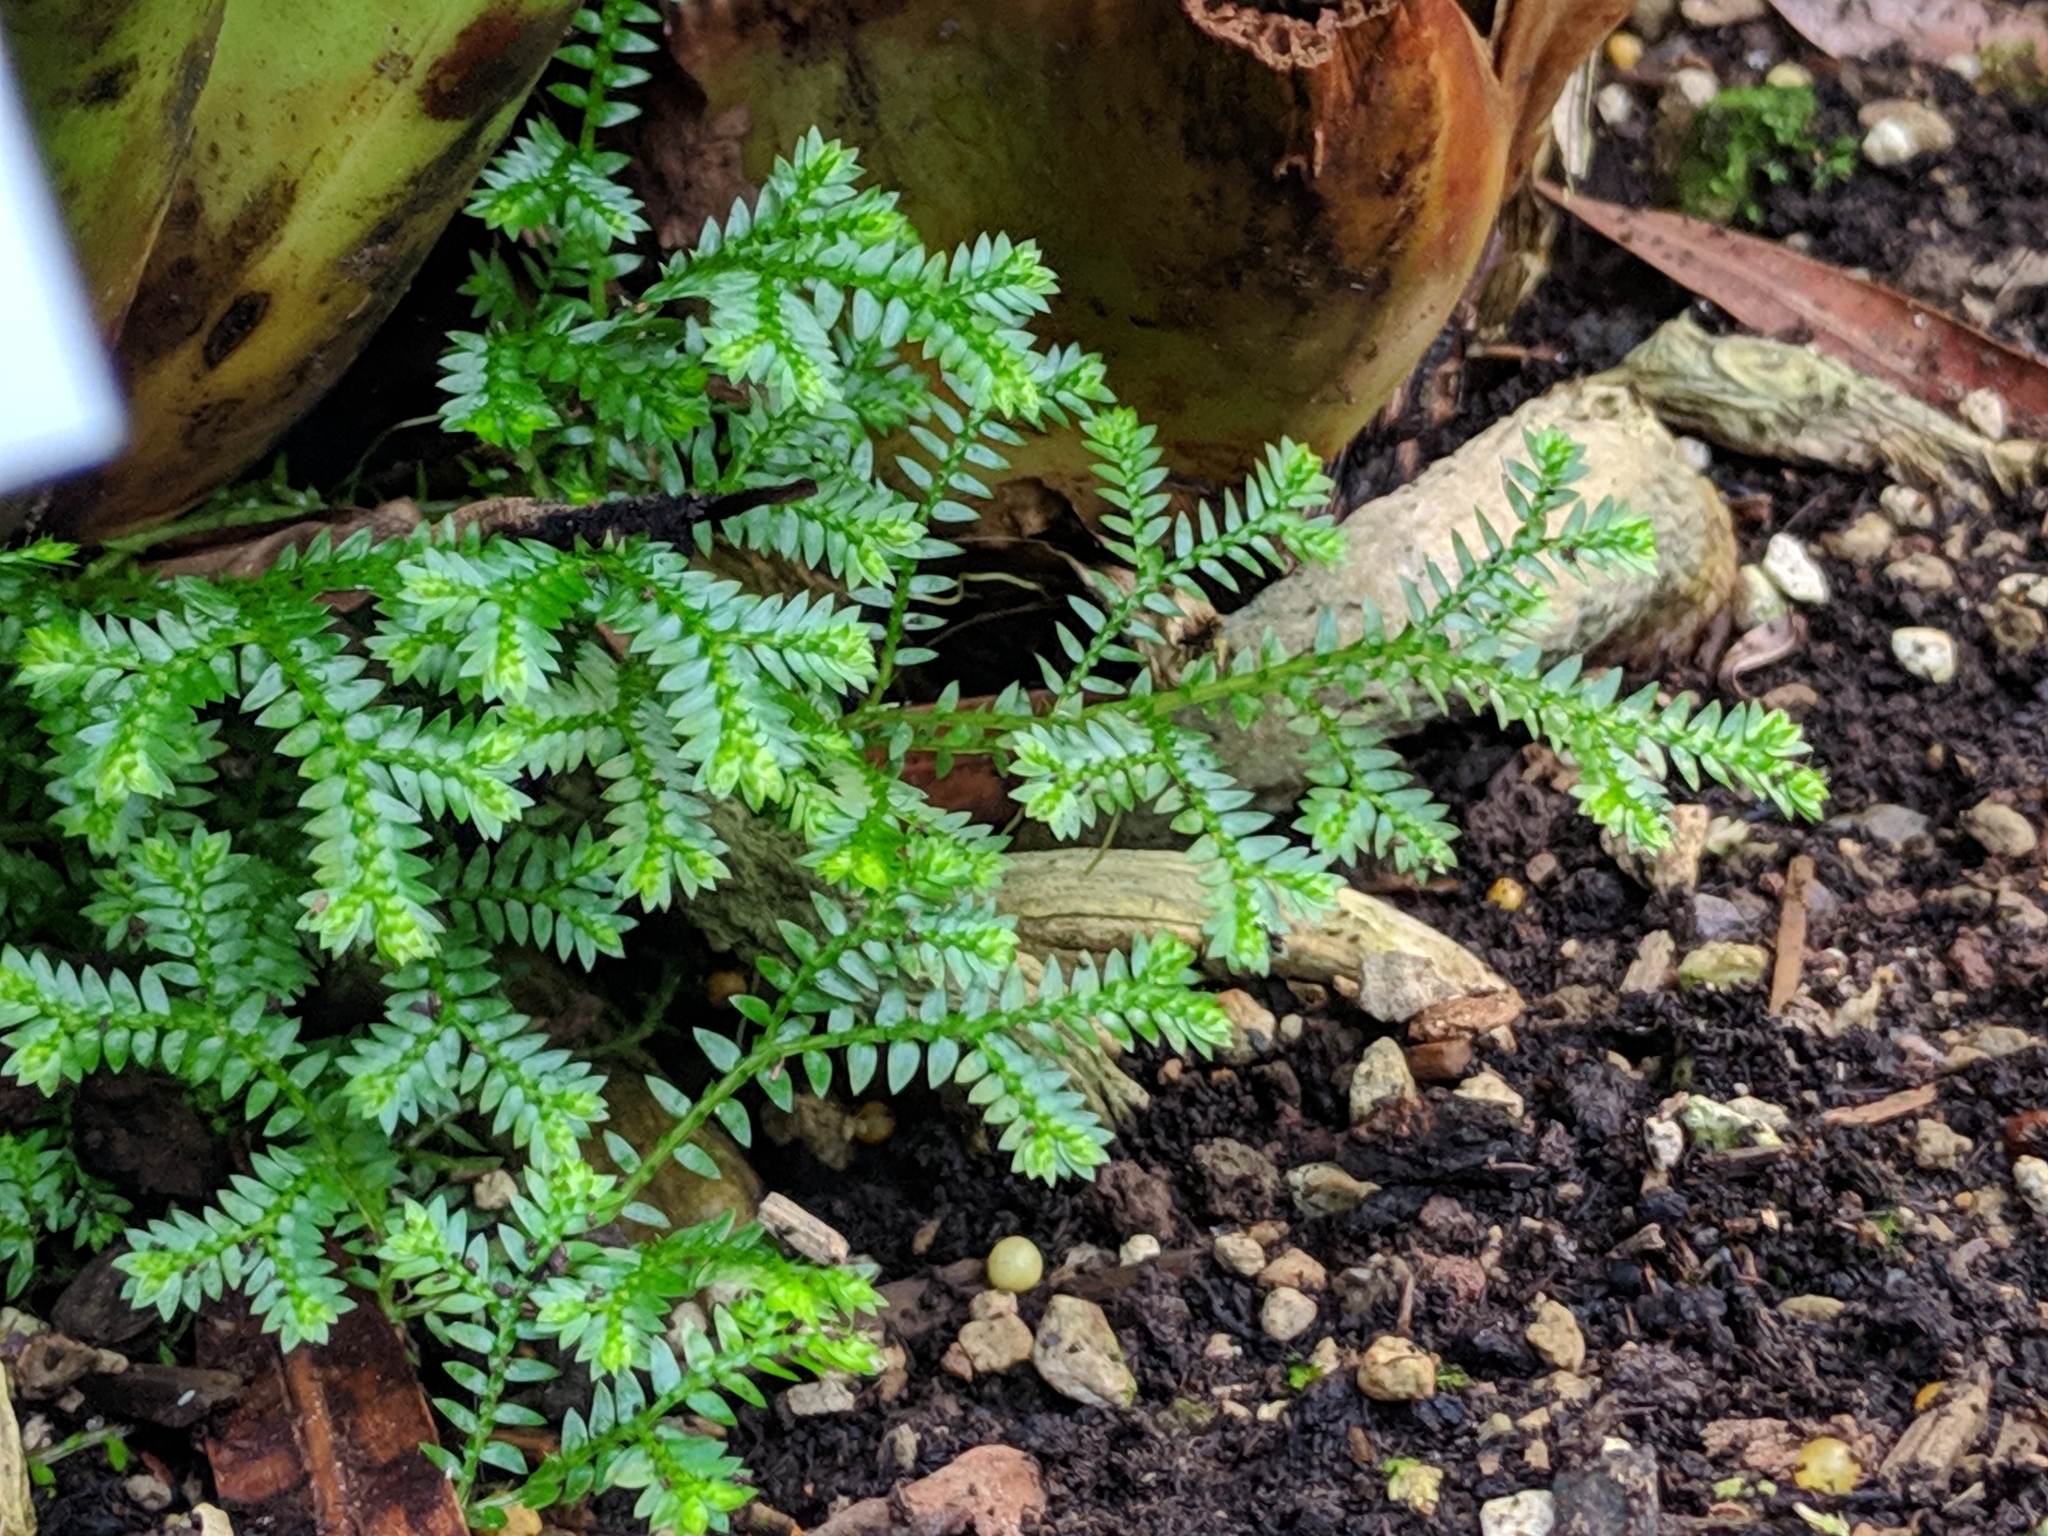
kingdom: Plantae
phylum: Tracheophyta
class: Lycopodiopsida
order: Selaginellales
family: Selaginellaceae
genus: Selaginella
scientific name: Selaginella kraussiana
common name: Krauss' spikemoss
